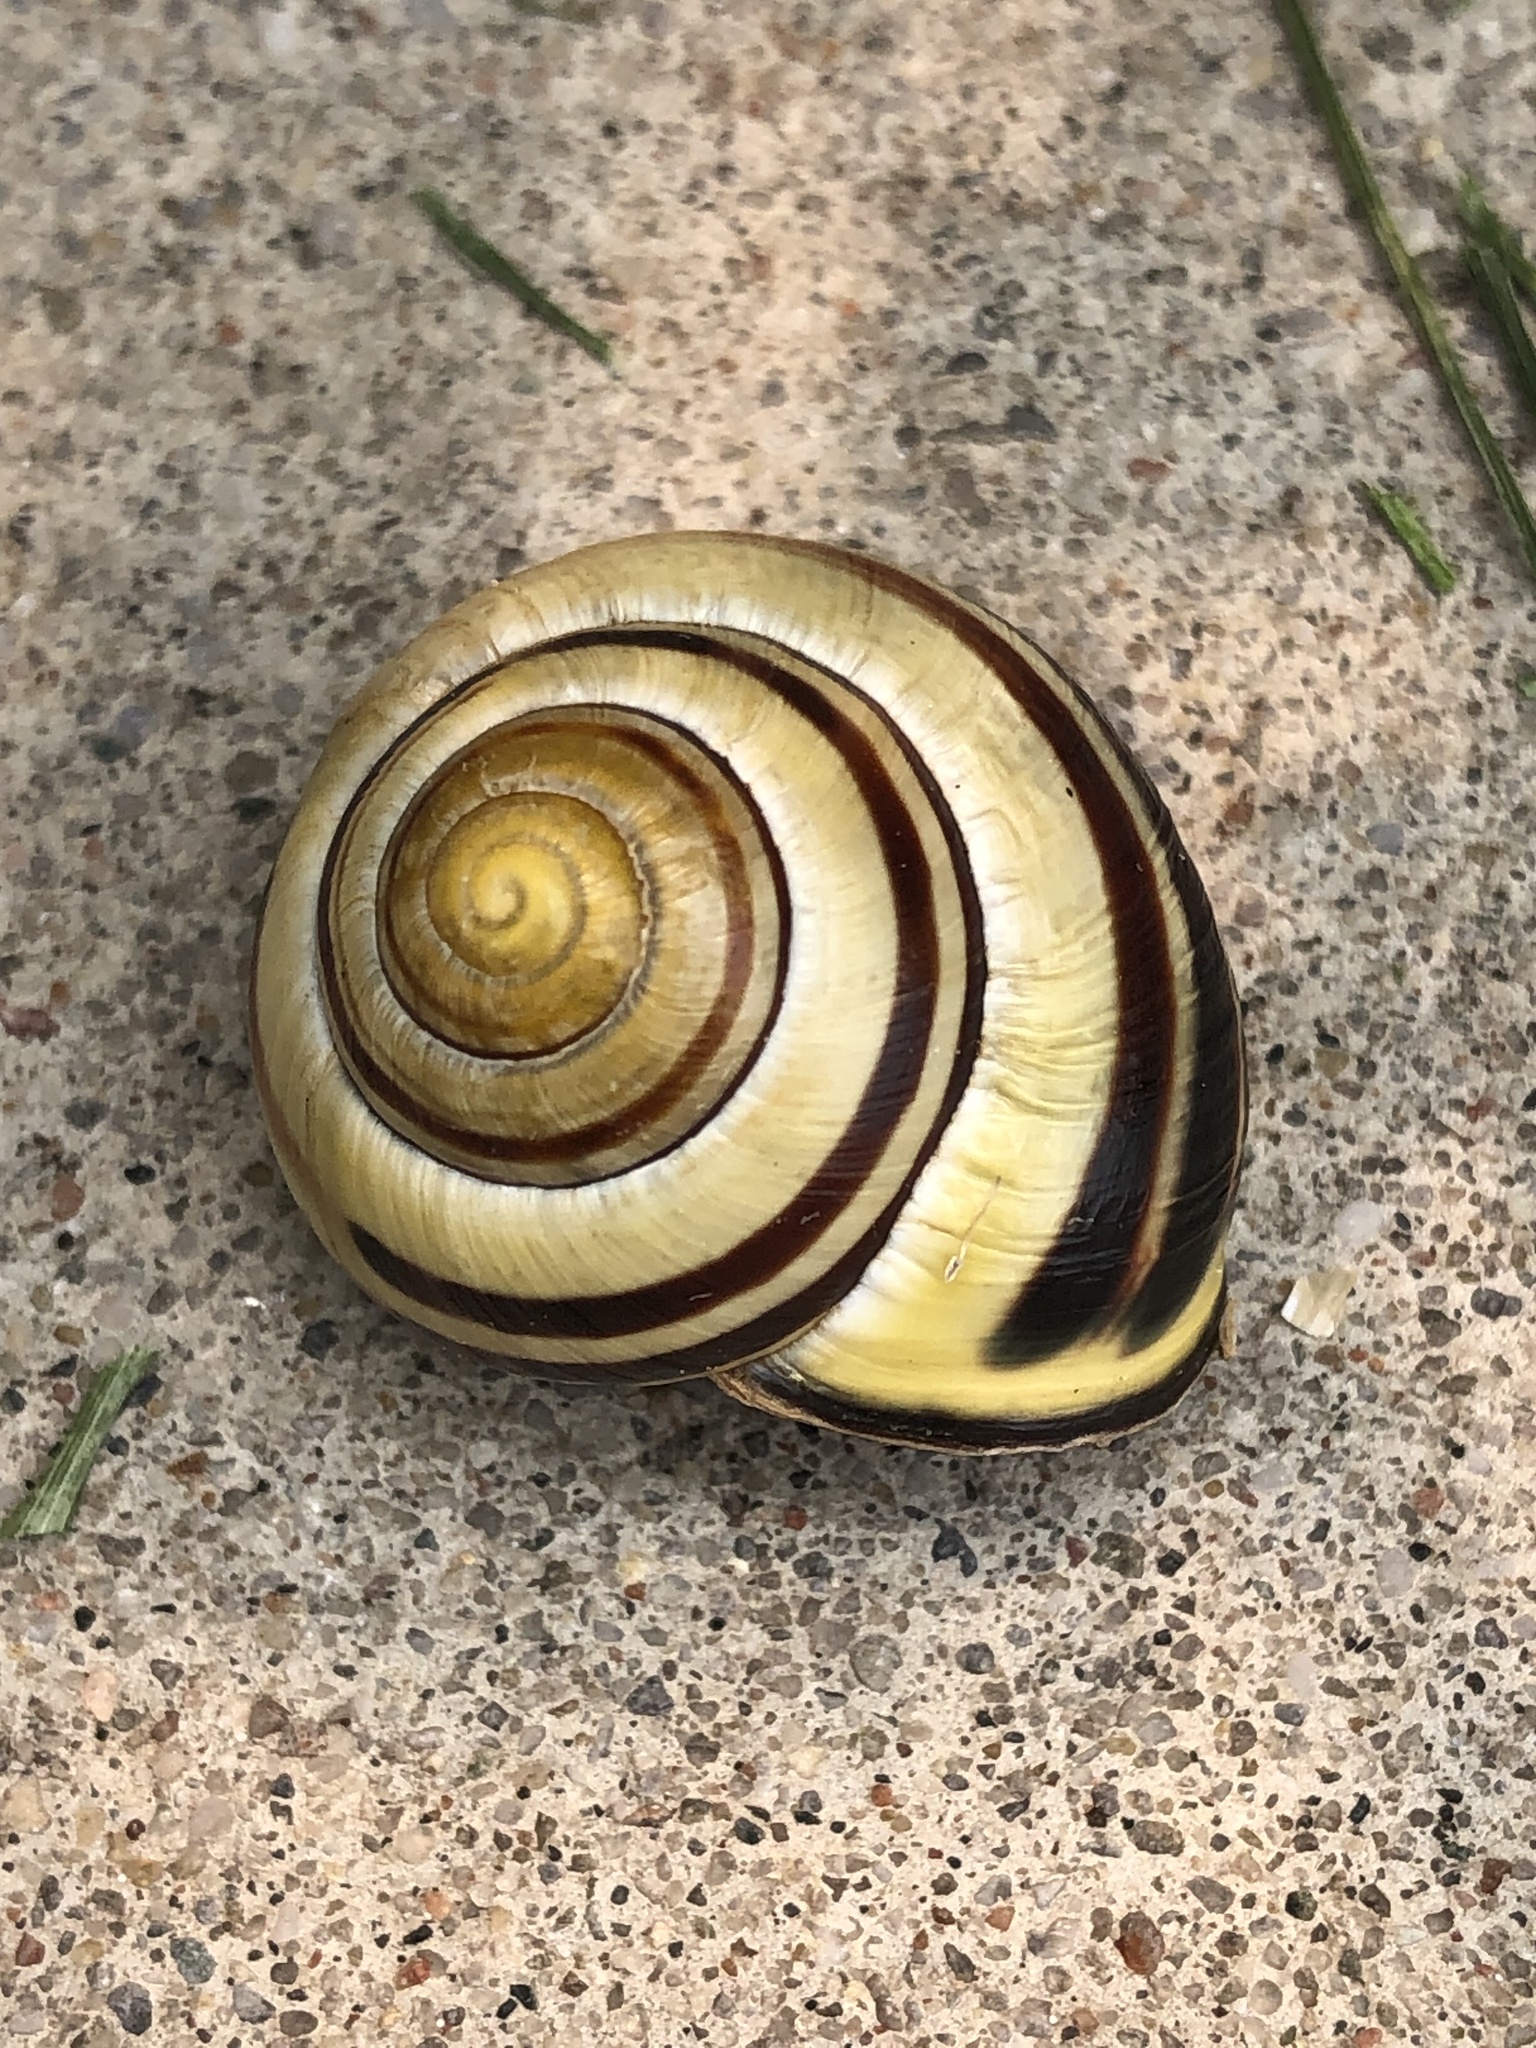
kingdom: Animalia
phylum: Mollusca
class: Gastropoda
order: Stylommatophora
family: Helicidae
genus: Cepaea
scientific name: Cepaea nemoralis
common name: Grovesnail
